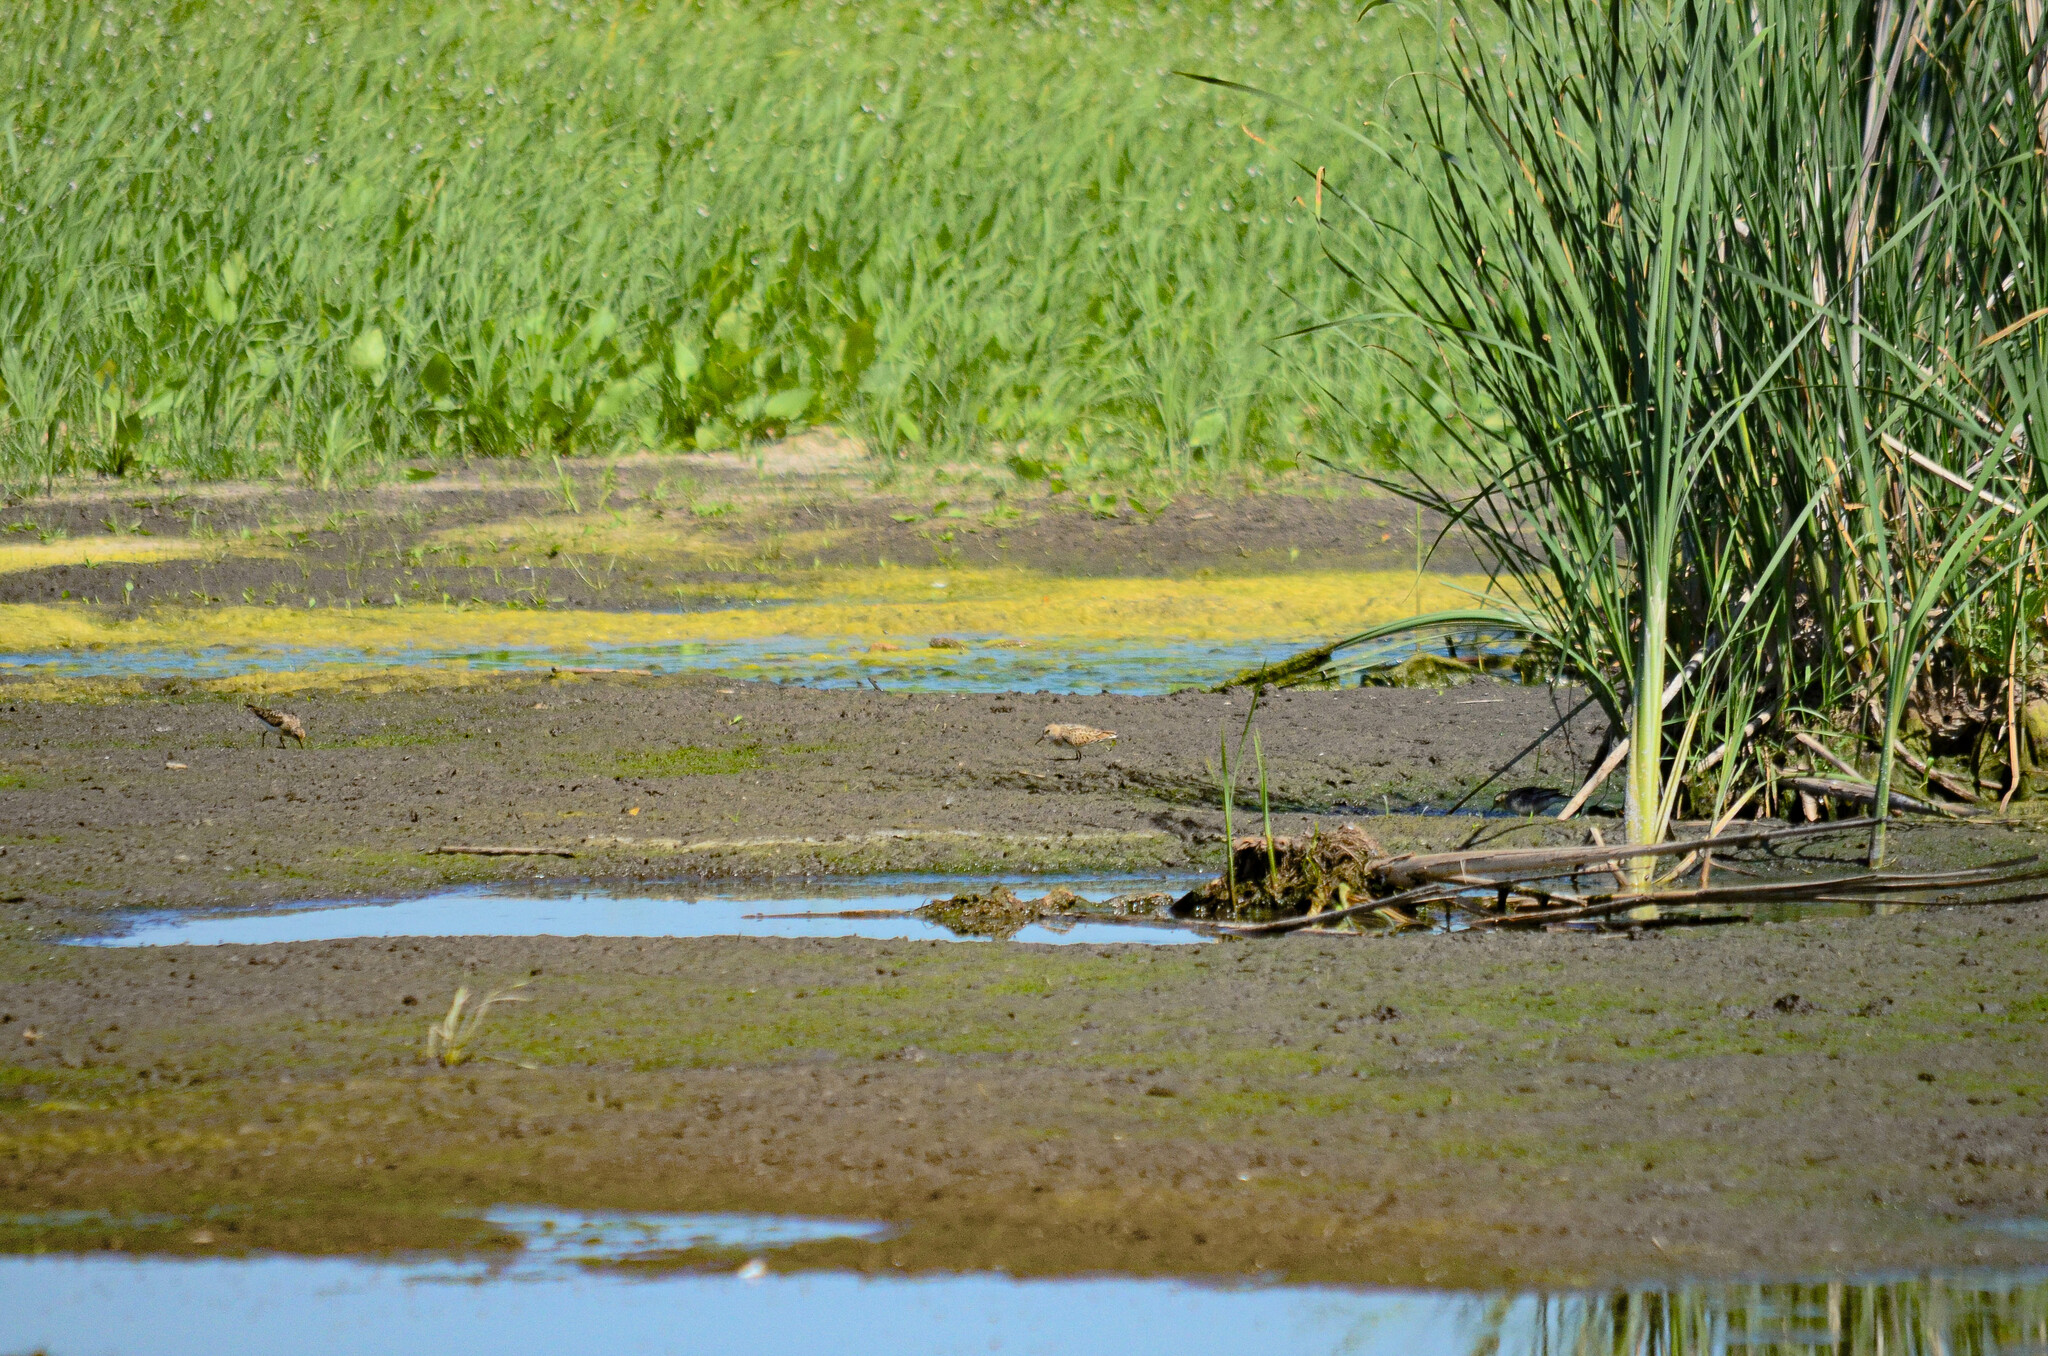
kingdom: Animalia
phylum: Chordata
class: Aves
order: Charadriiformes
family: Scolopacidae
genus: Calidris
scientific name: Calidris minuta
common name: Little stint
